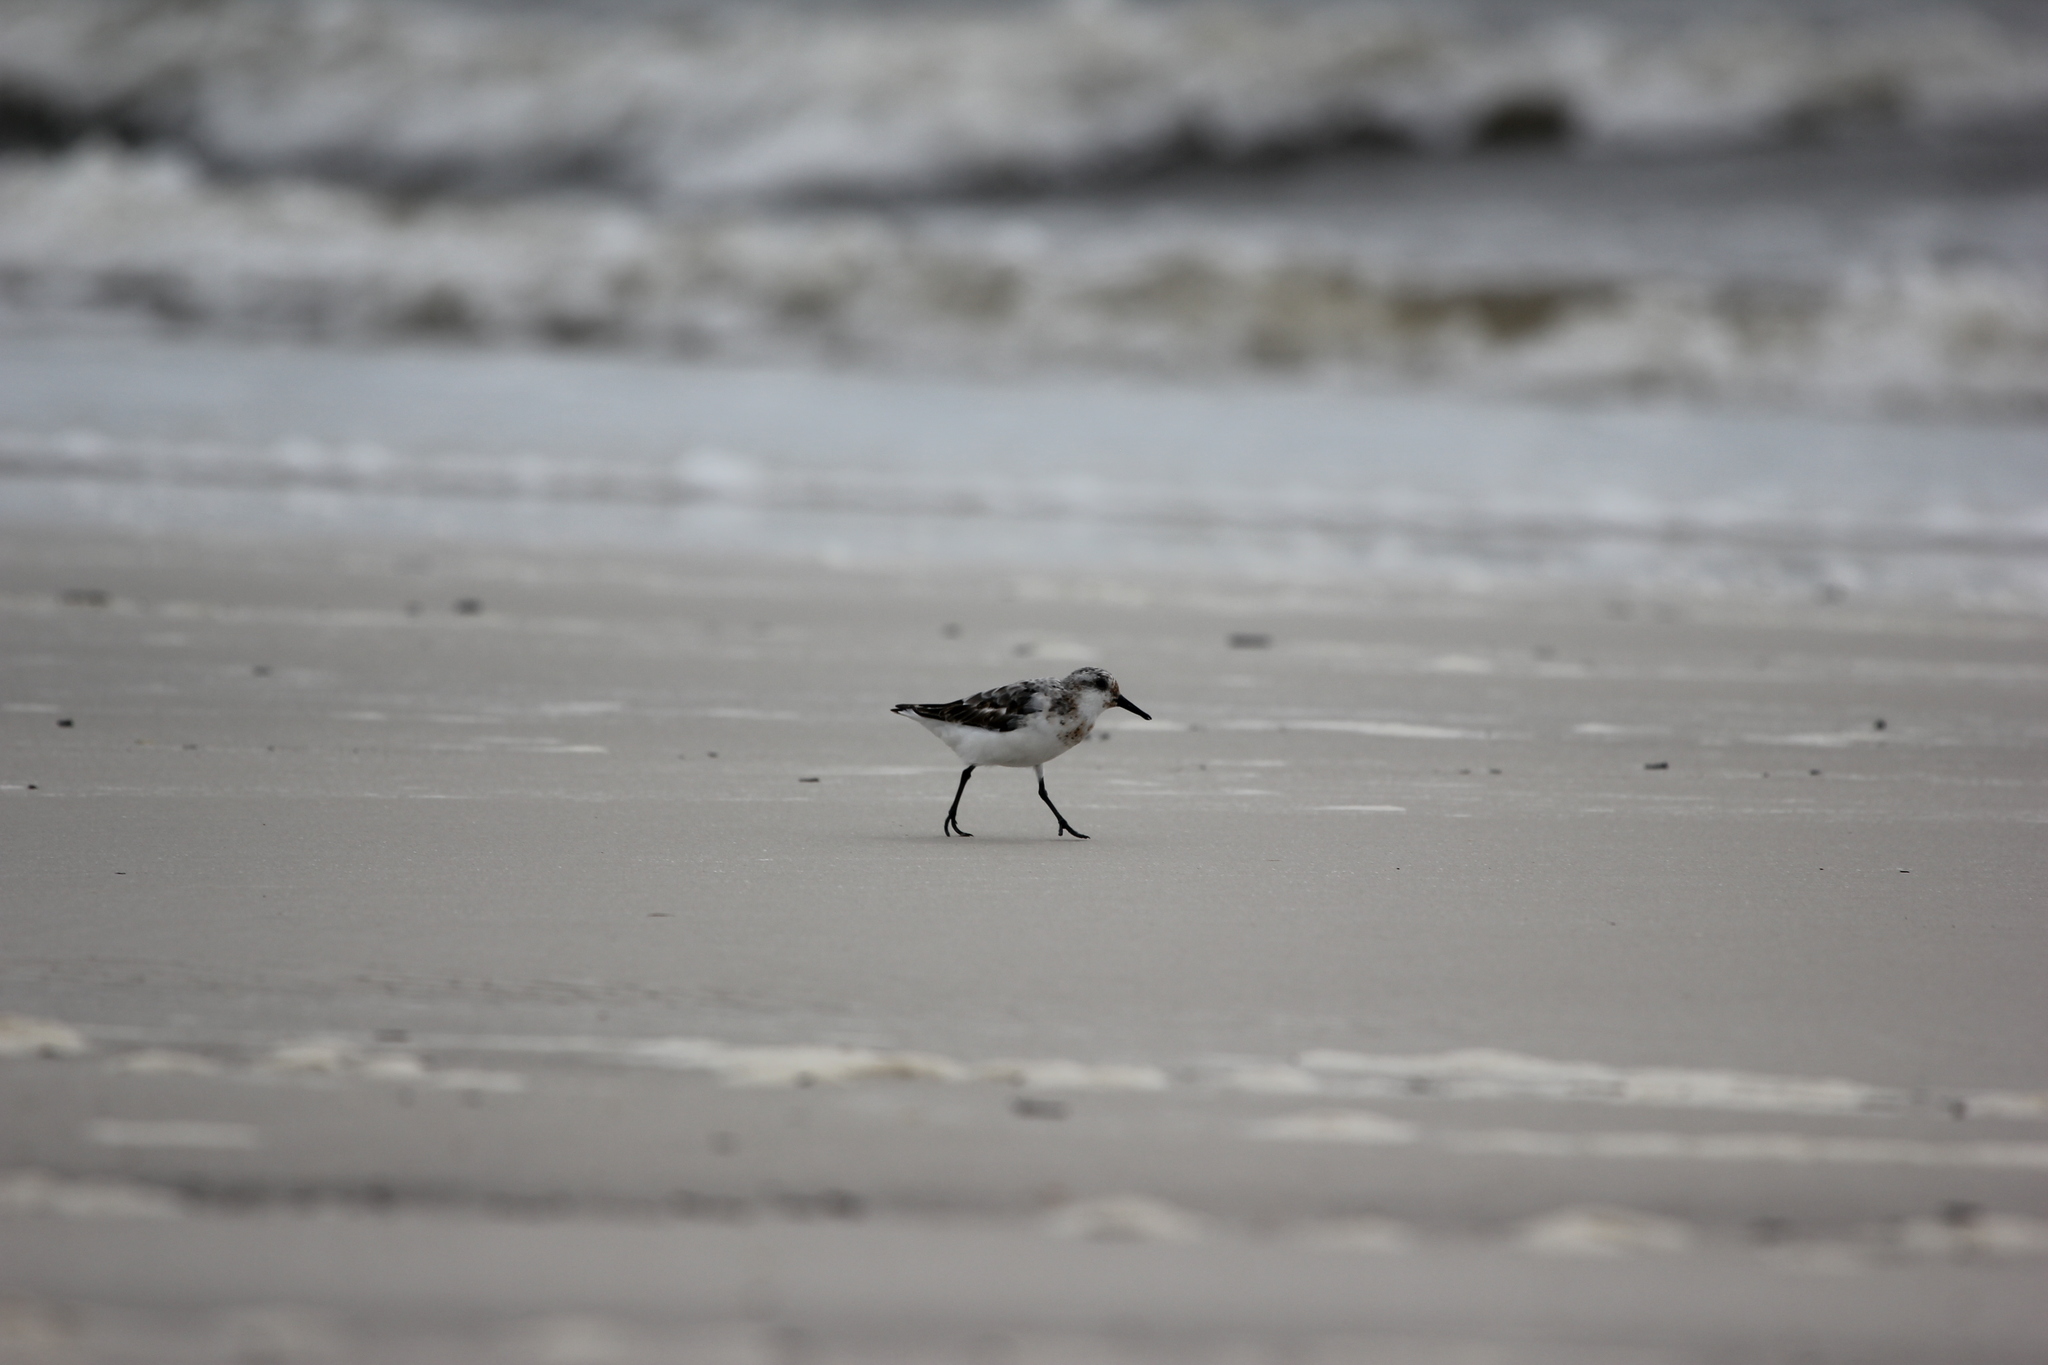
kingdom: Animalia
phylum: Chordata
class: Aves
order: Charadriiformes
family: Scolopacidae
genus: Calidris
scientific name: Calidris alba
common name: Sanderling
